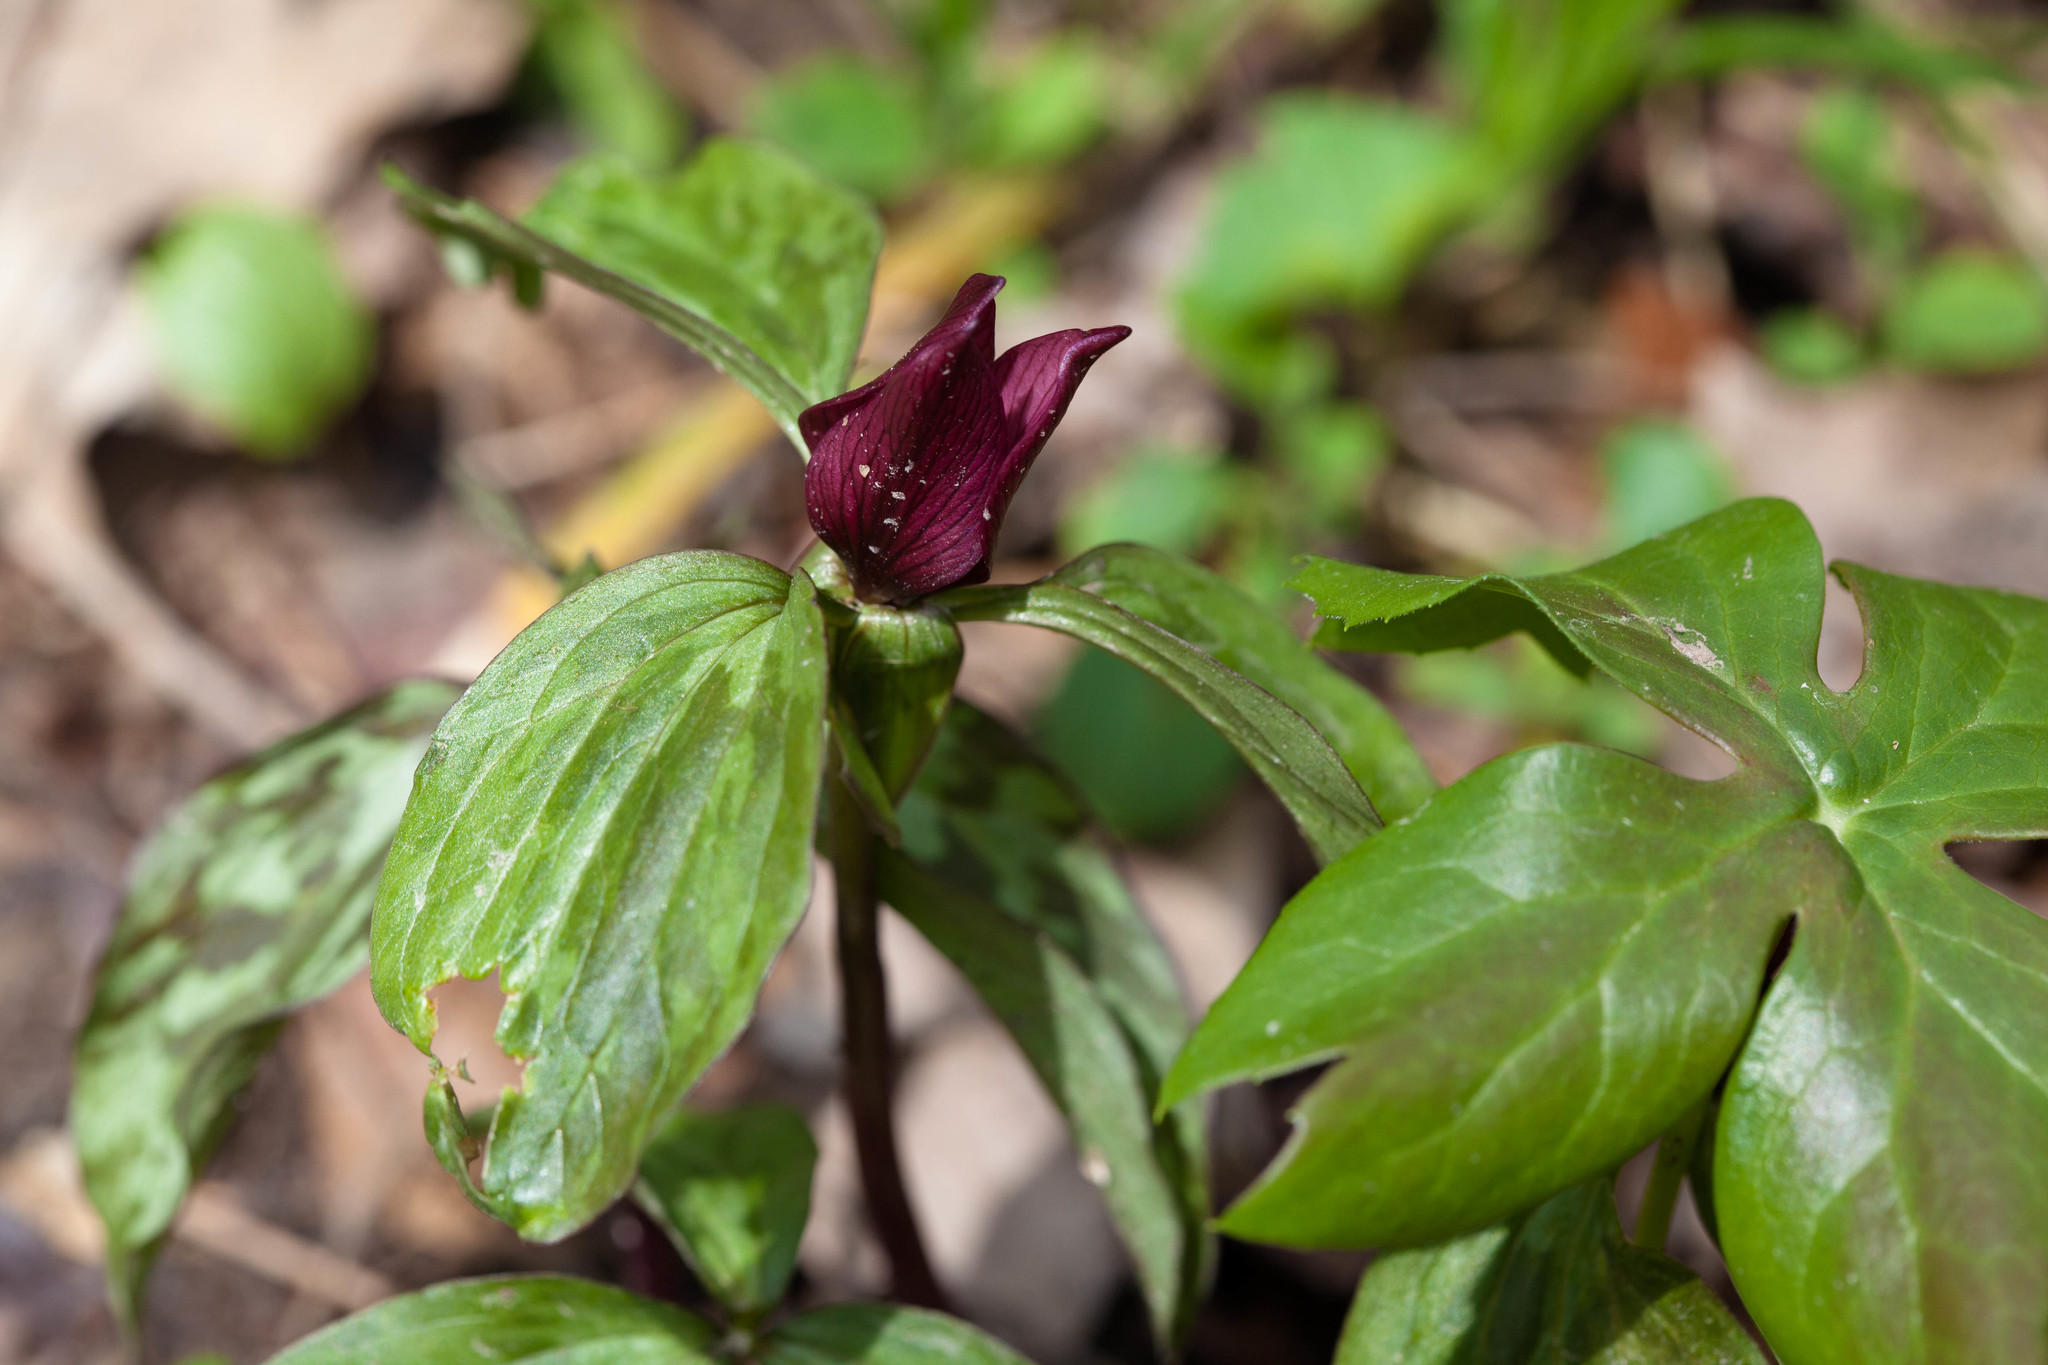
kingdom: Plantae
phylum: Tracheophyta
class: Liliopsida
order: Liliales
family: Melanthiaceae
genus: Trillium
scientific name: Trillium recurvatum
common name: Bloody butcher
